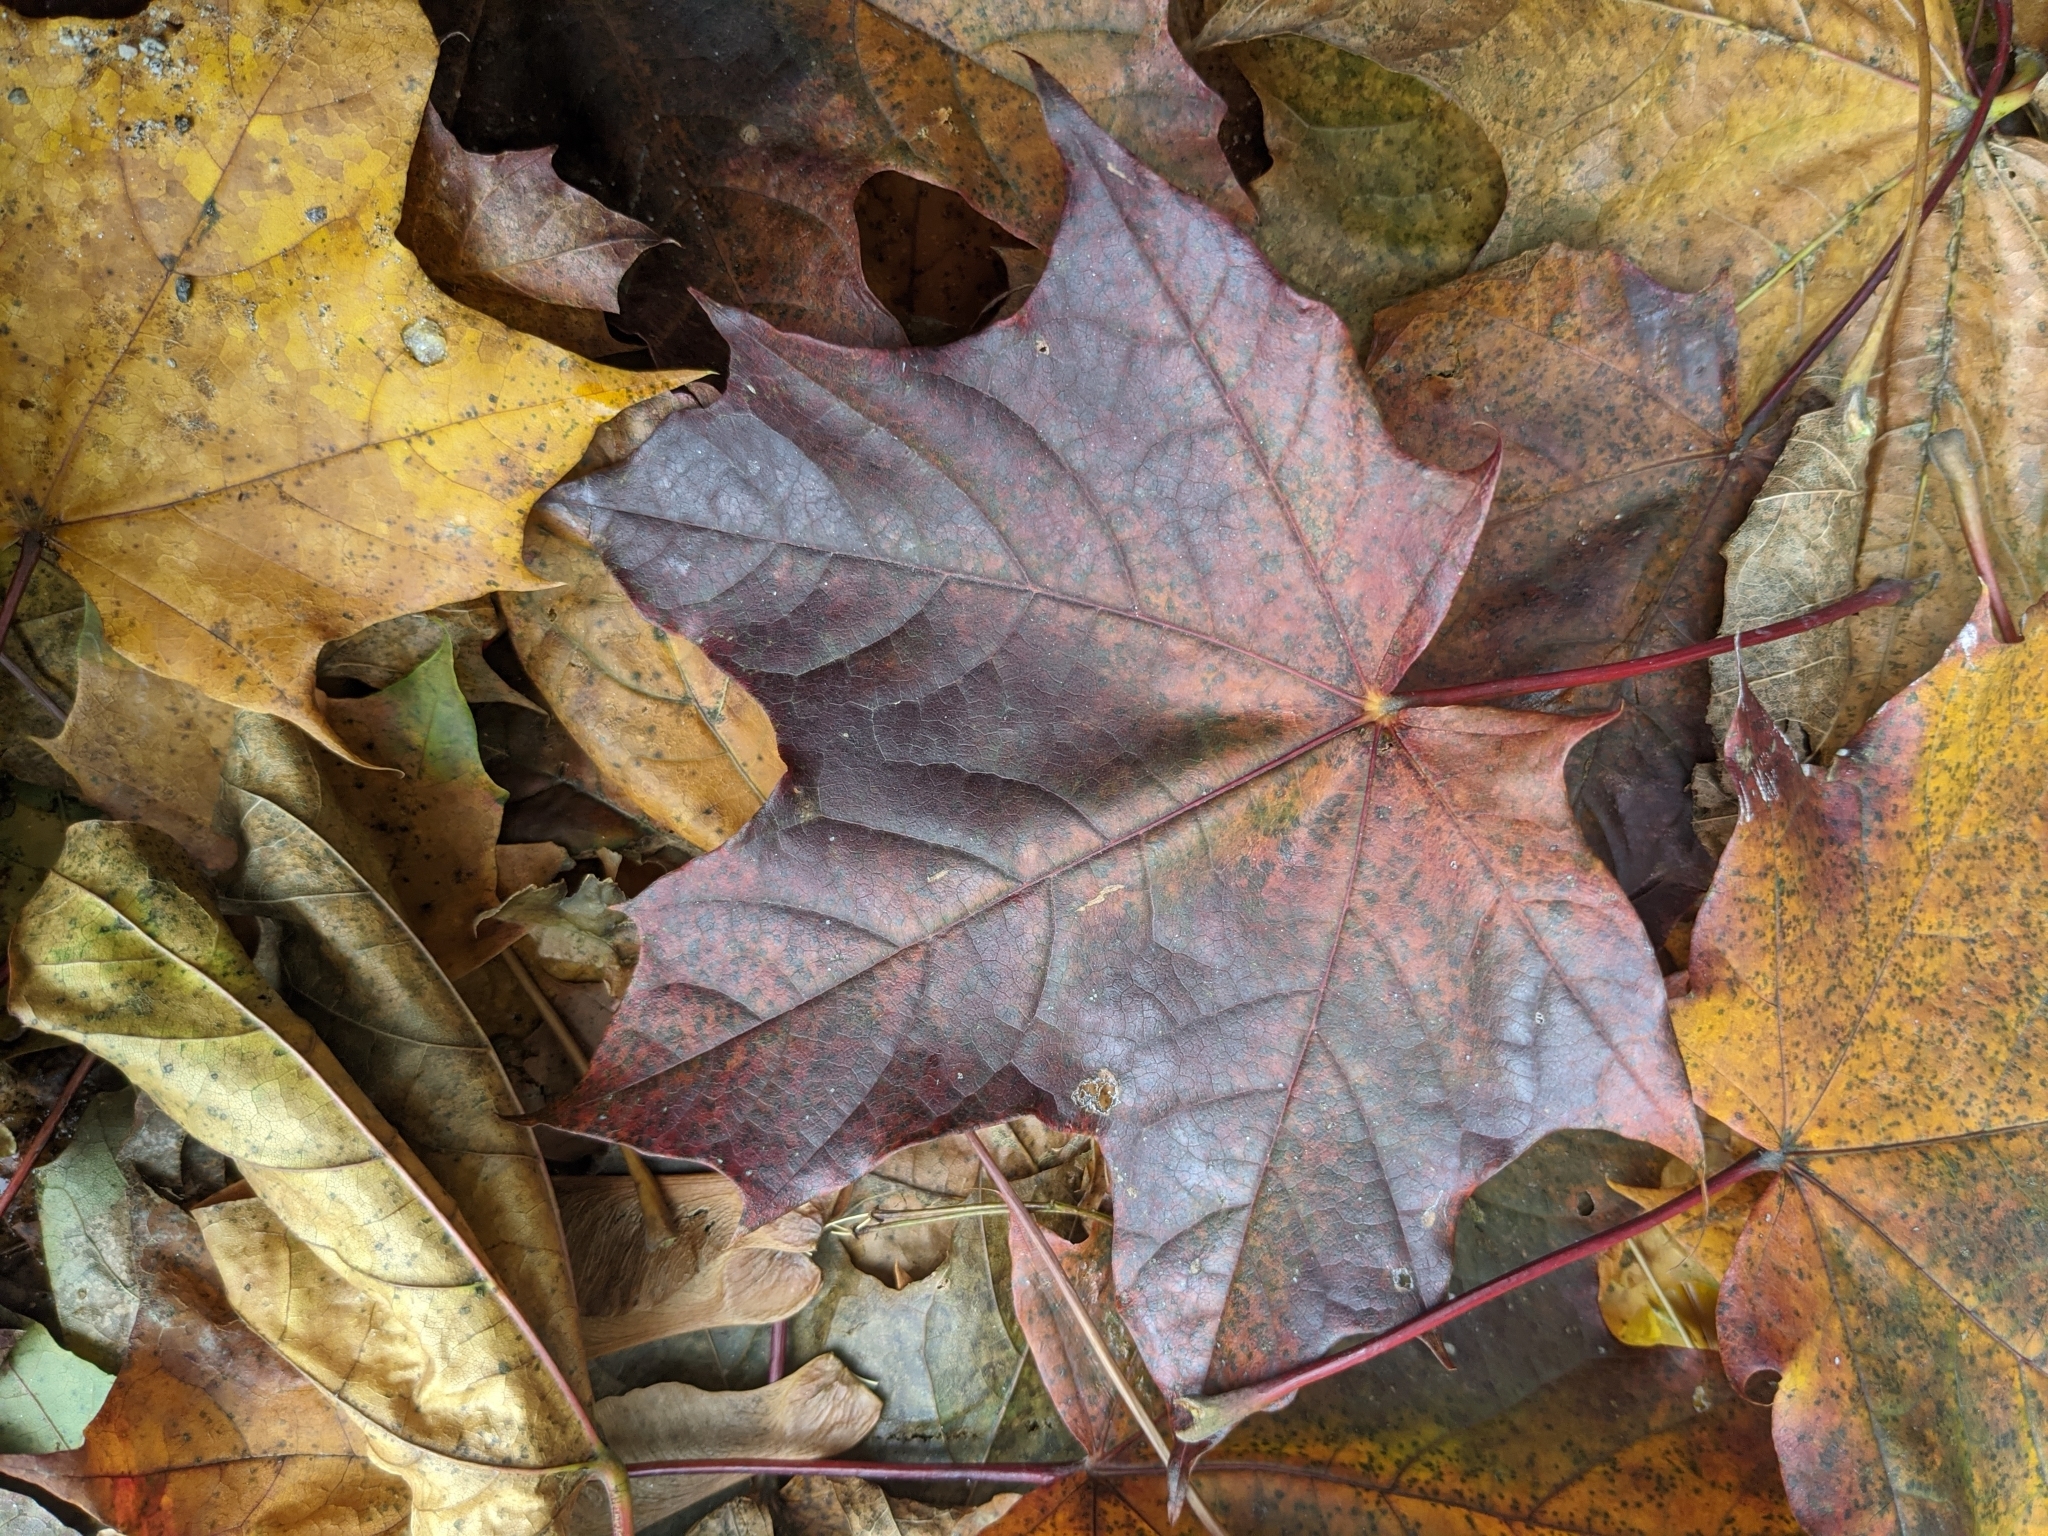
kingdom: Plantae
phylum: Tracheophyta
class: Magnoliopsida
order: Sapindales
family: Sapindaceae
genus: Acer
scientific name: Acer platanoides
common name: Norway maple
